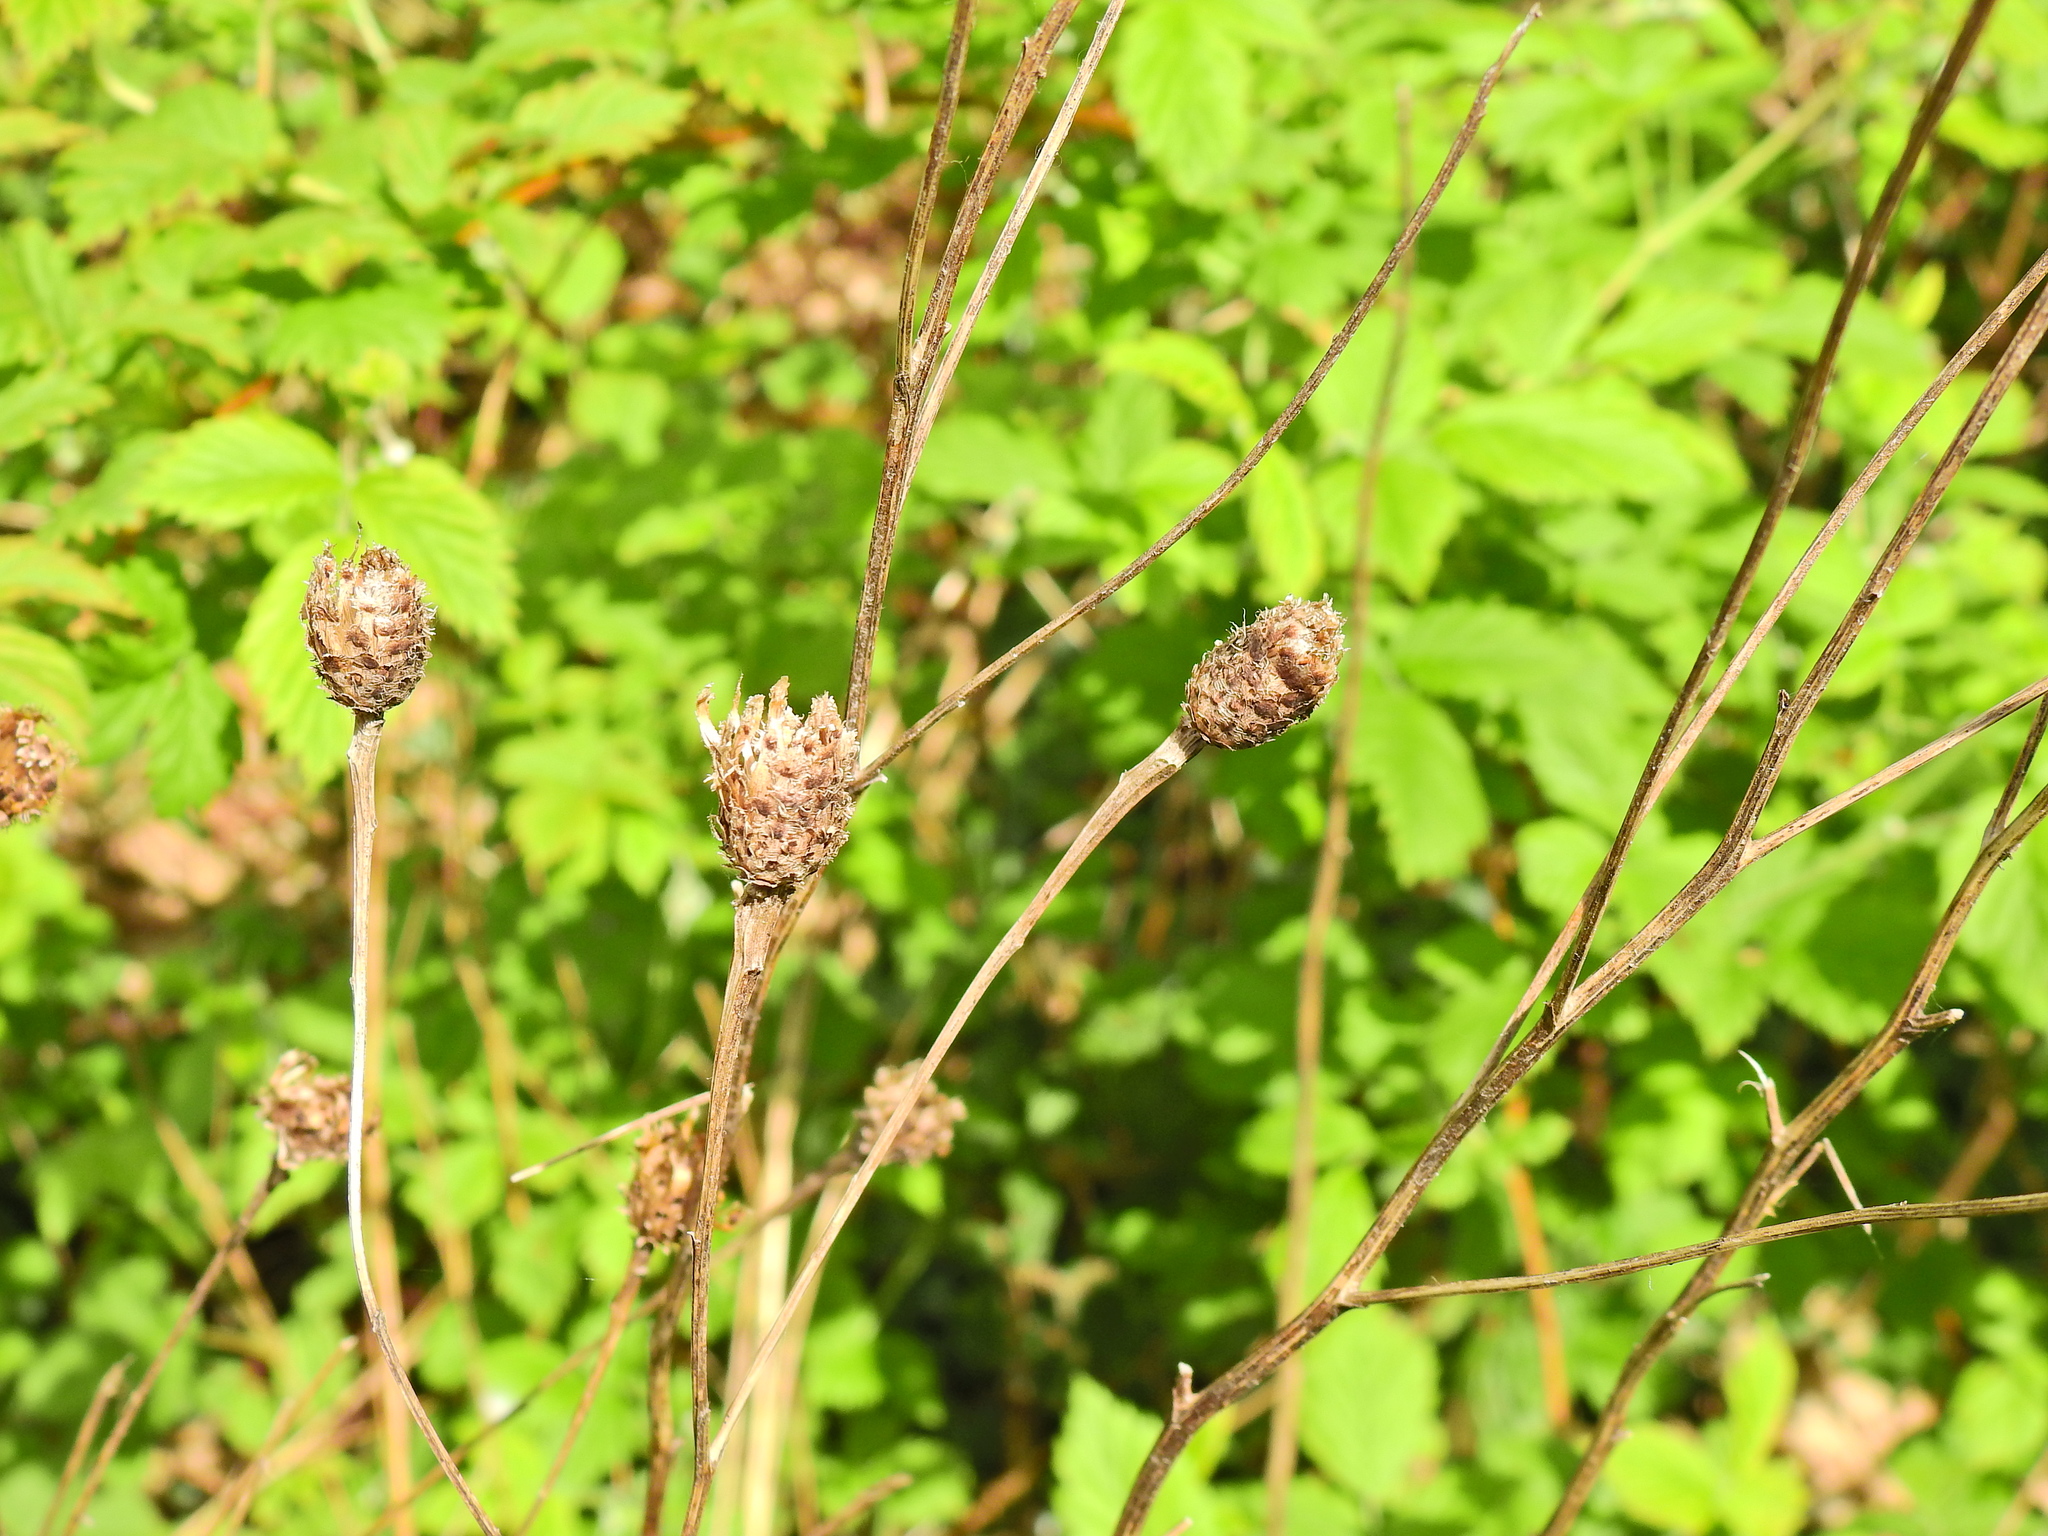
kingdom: Plantae
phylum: Tracheophyta
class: Magnoliopsida
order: Asterales
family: Asteraceae
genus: Centaurea
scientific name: Centaurea nigra
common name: Lesser knapweed
